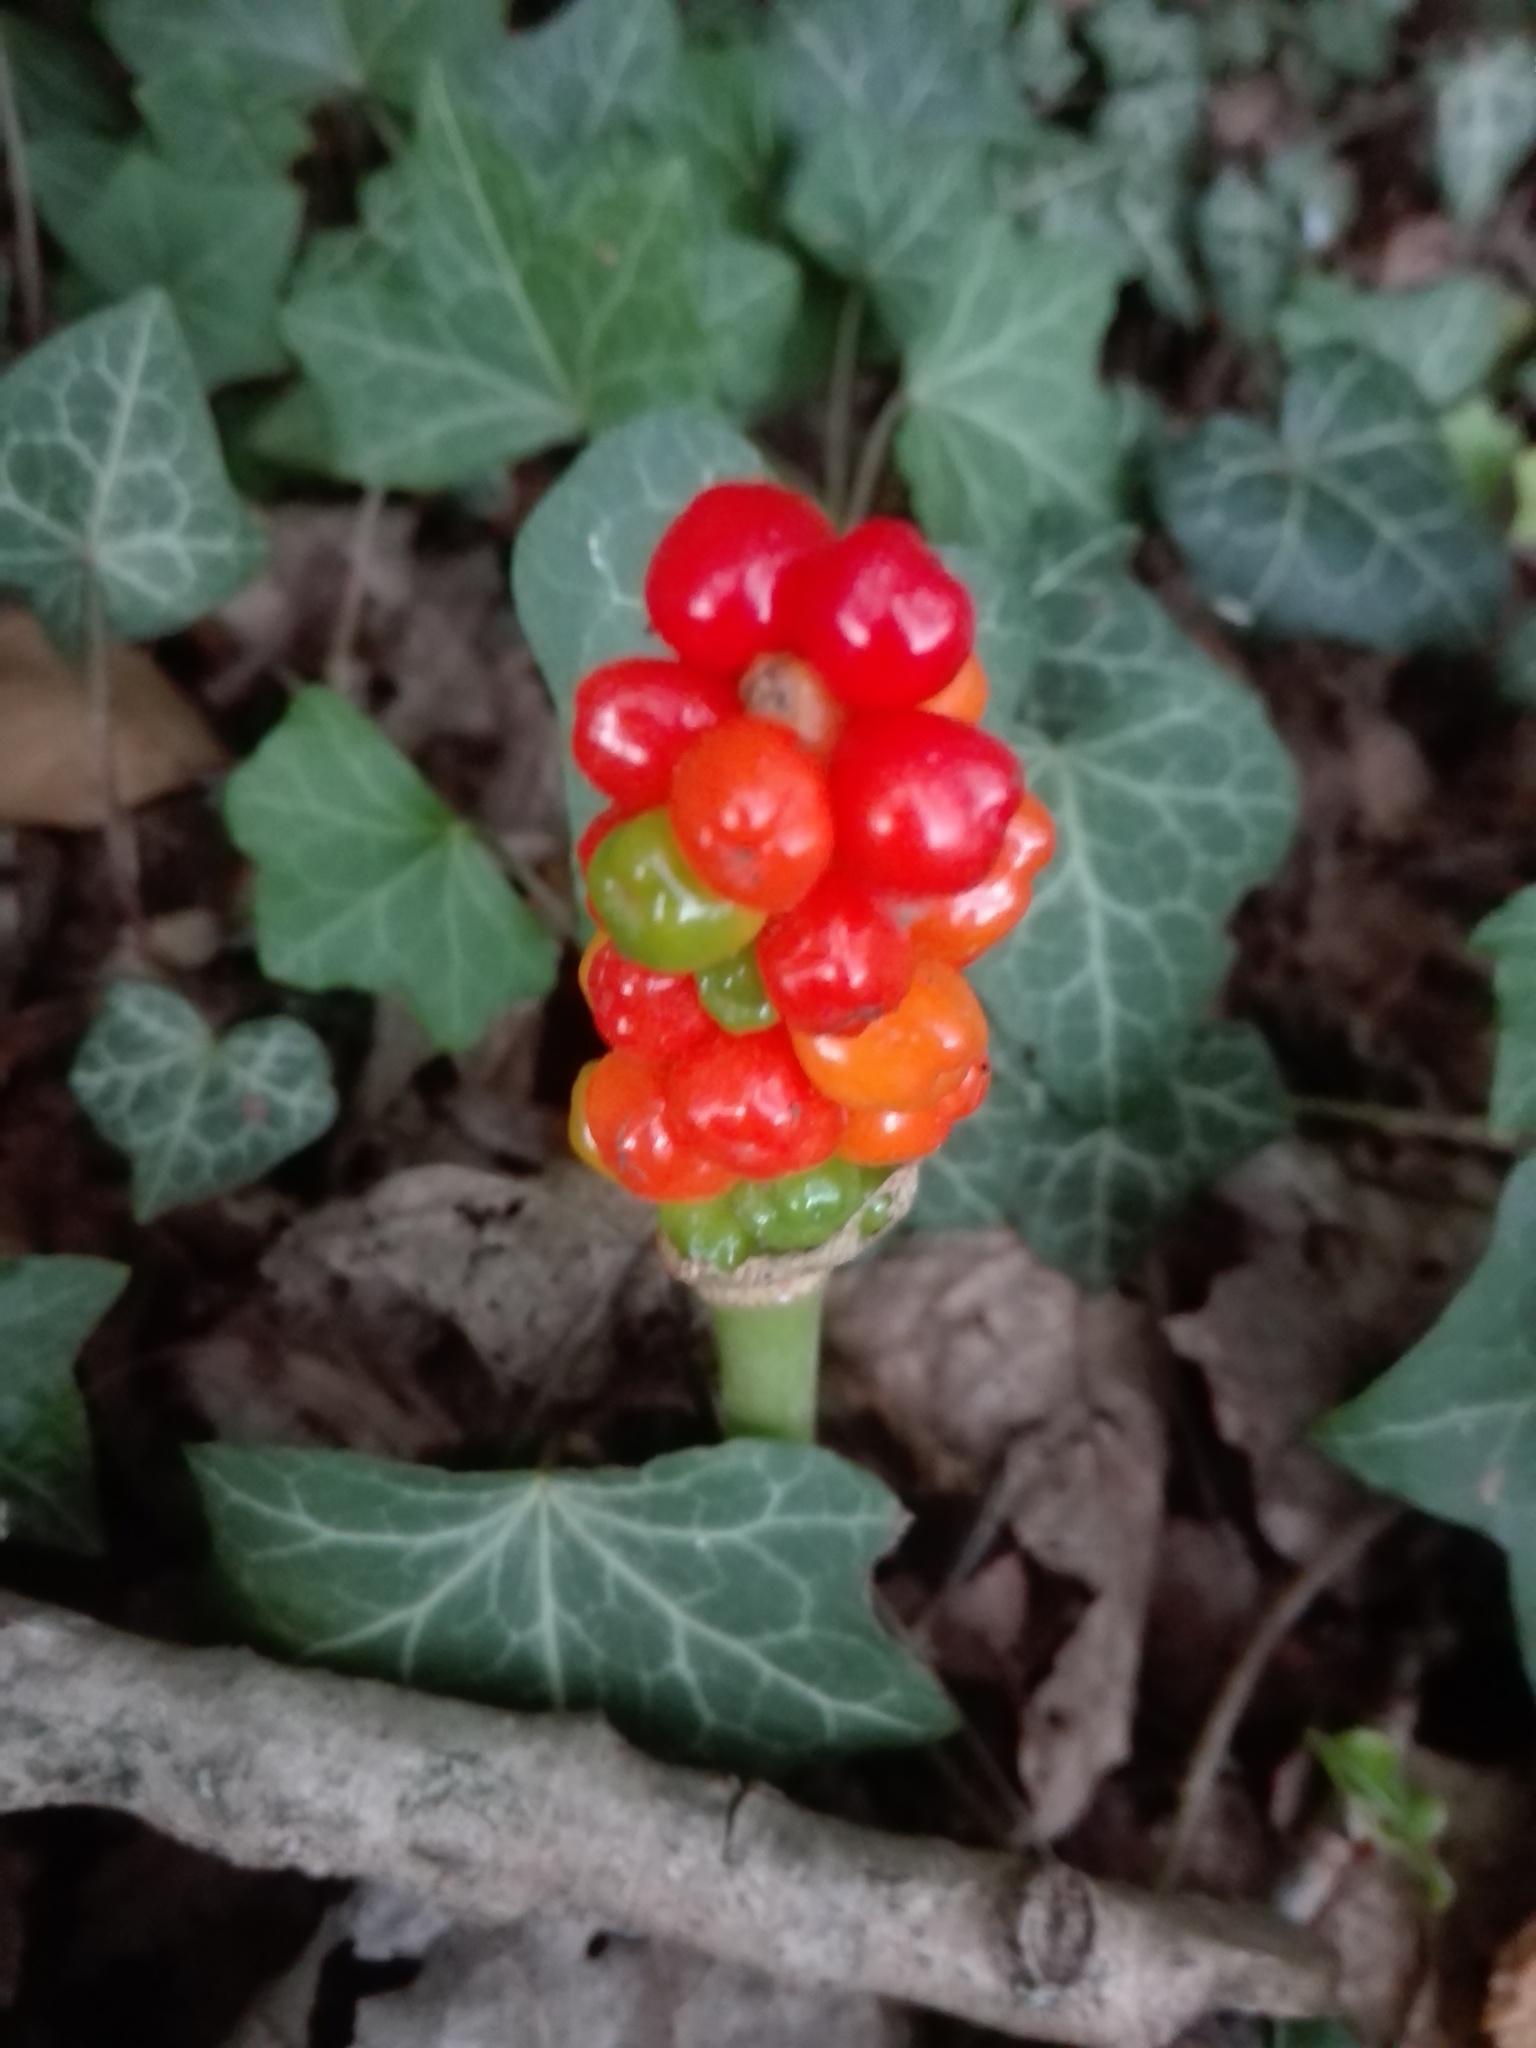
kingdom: Plantae
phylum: Tracheophyta
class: Liliopsida
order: Alismatales
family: Araceae
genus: Arum
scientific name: Arum
